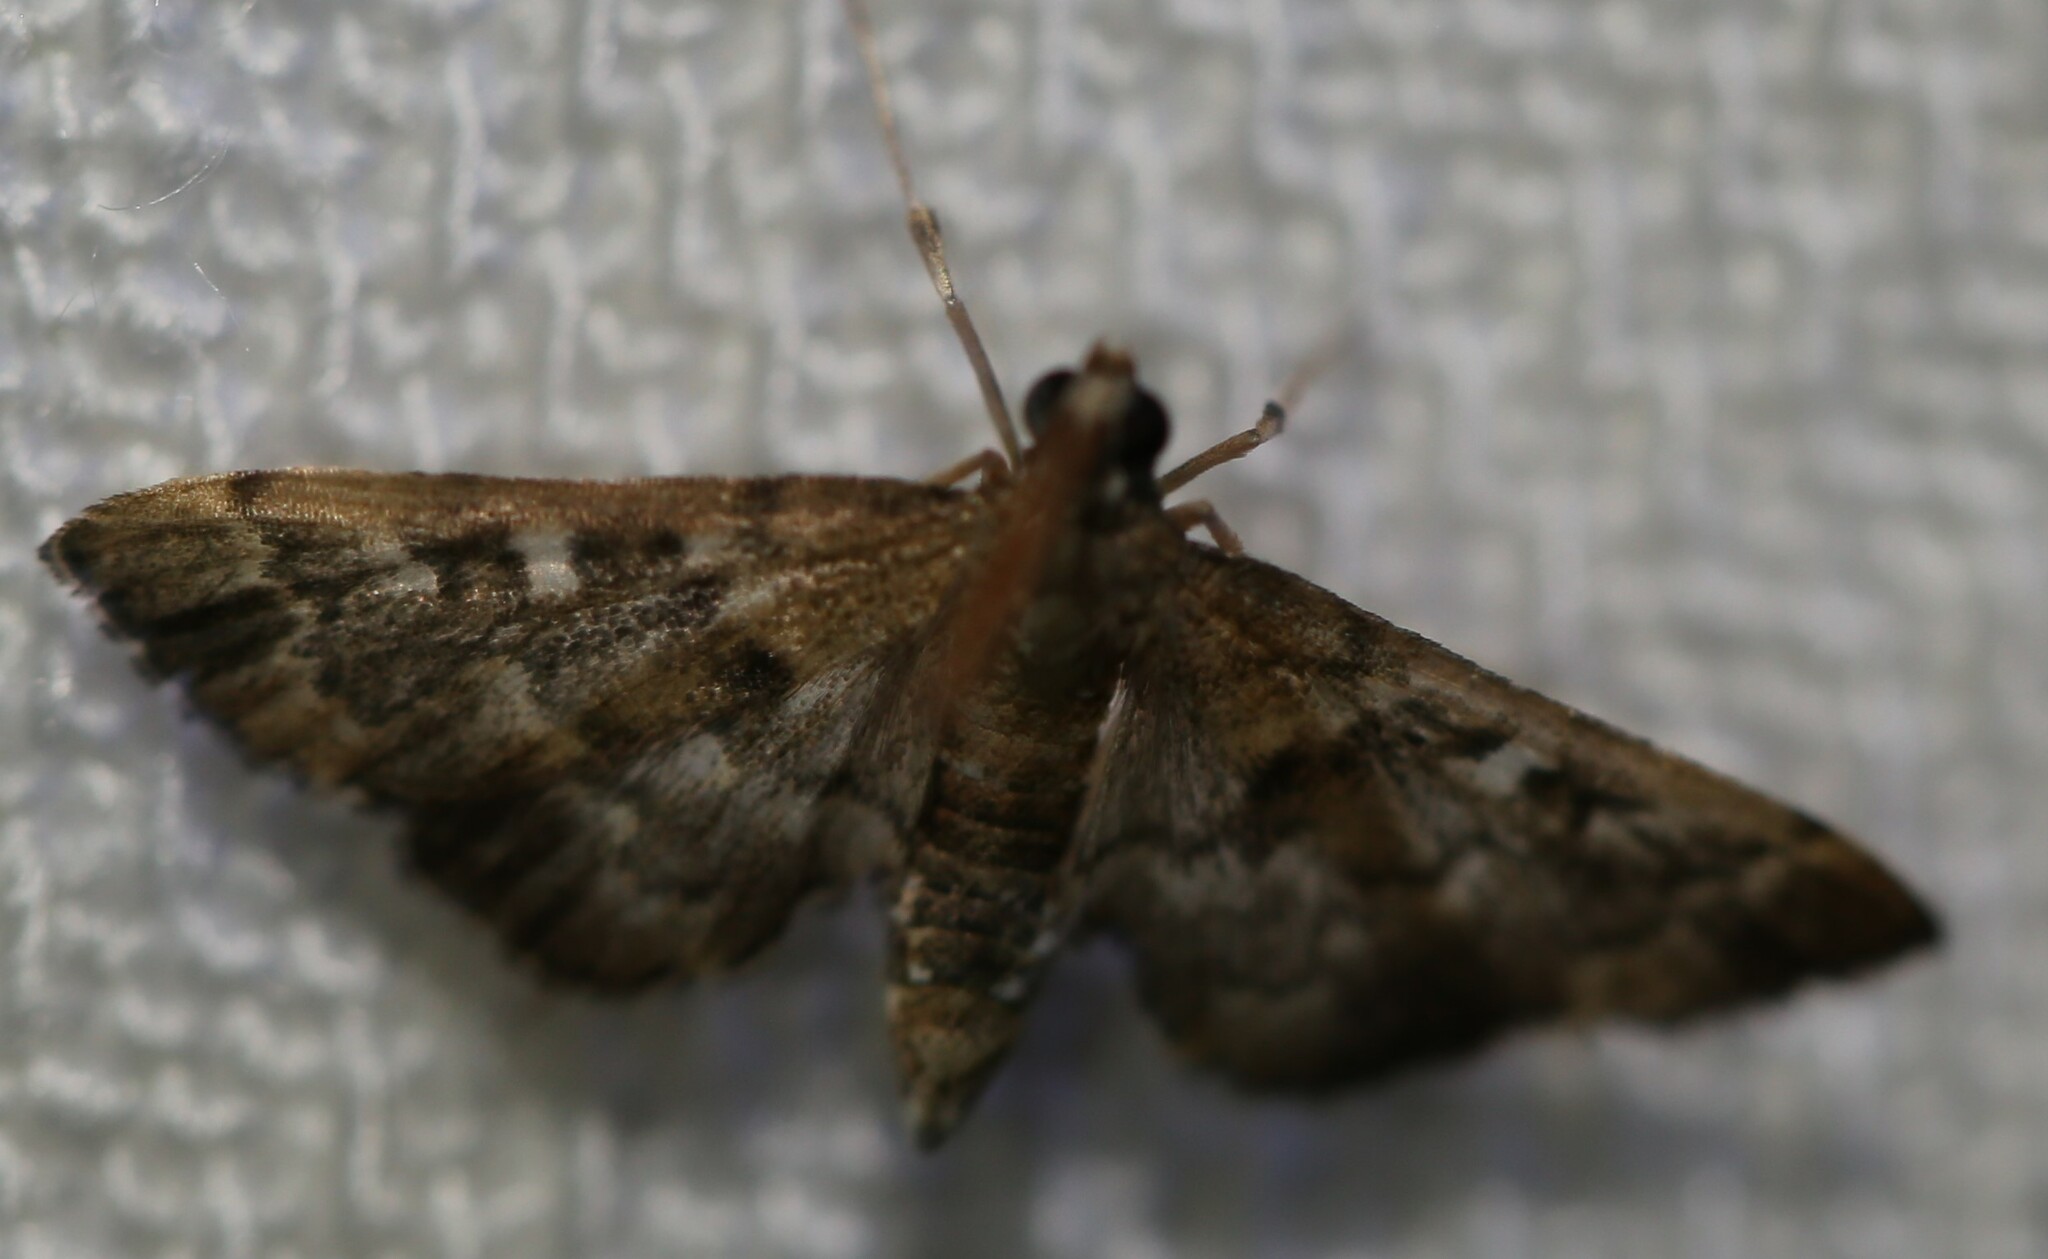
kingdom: Animalia
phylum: Arthropoda
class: Insecta
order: Lepidoptera
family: Crambidae
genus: Nacoleia
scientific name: Nacoleia rhoeoalis
